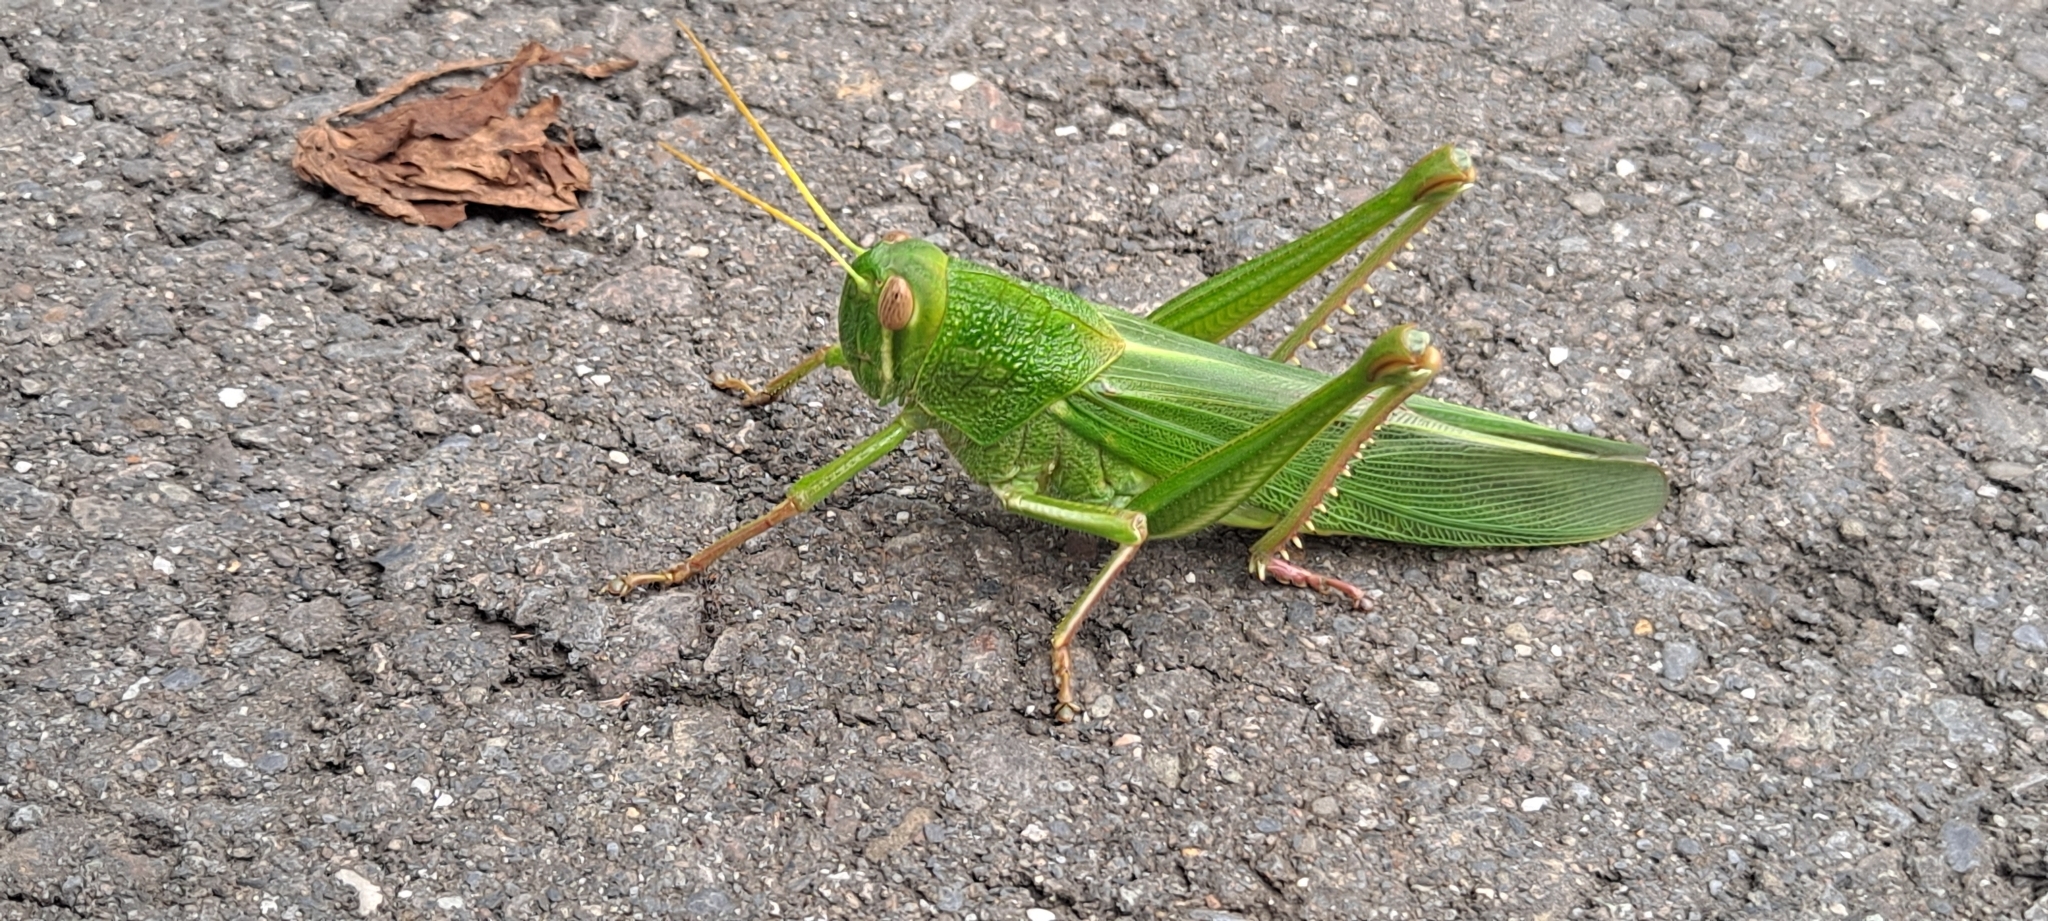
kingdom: Animalia
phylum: Arthropoda
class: Insecta
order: Orthoptera
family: Acrididae
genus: Chondracris
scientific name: Chondracris rosea
